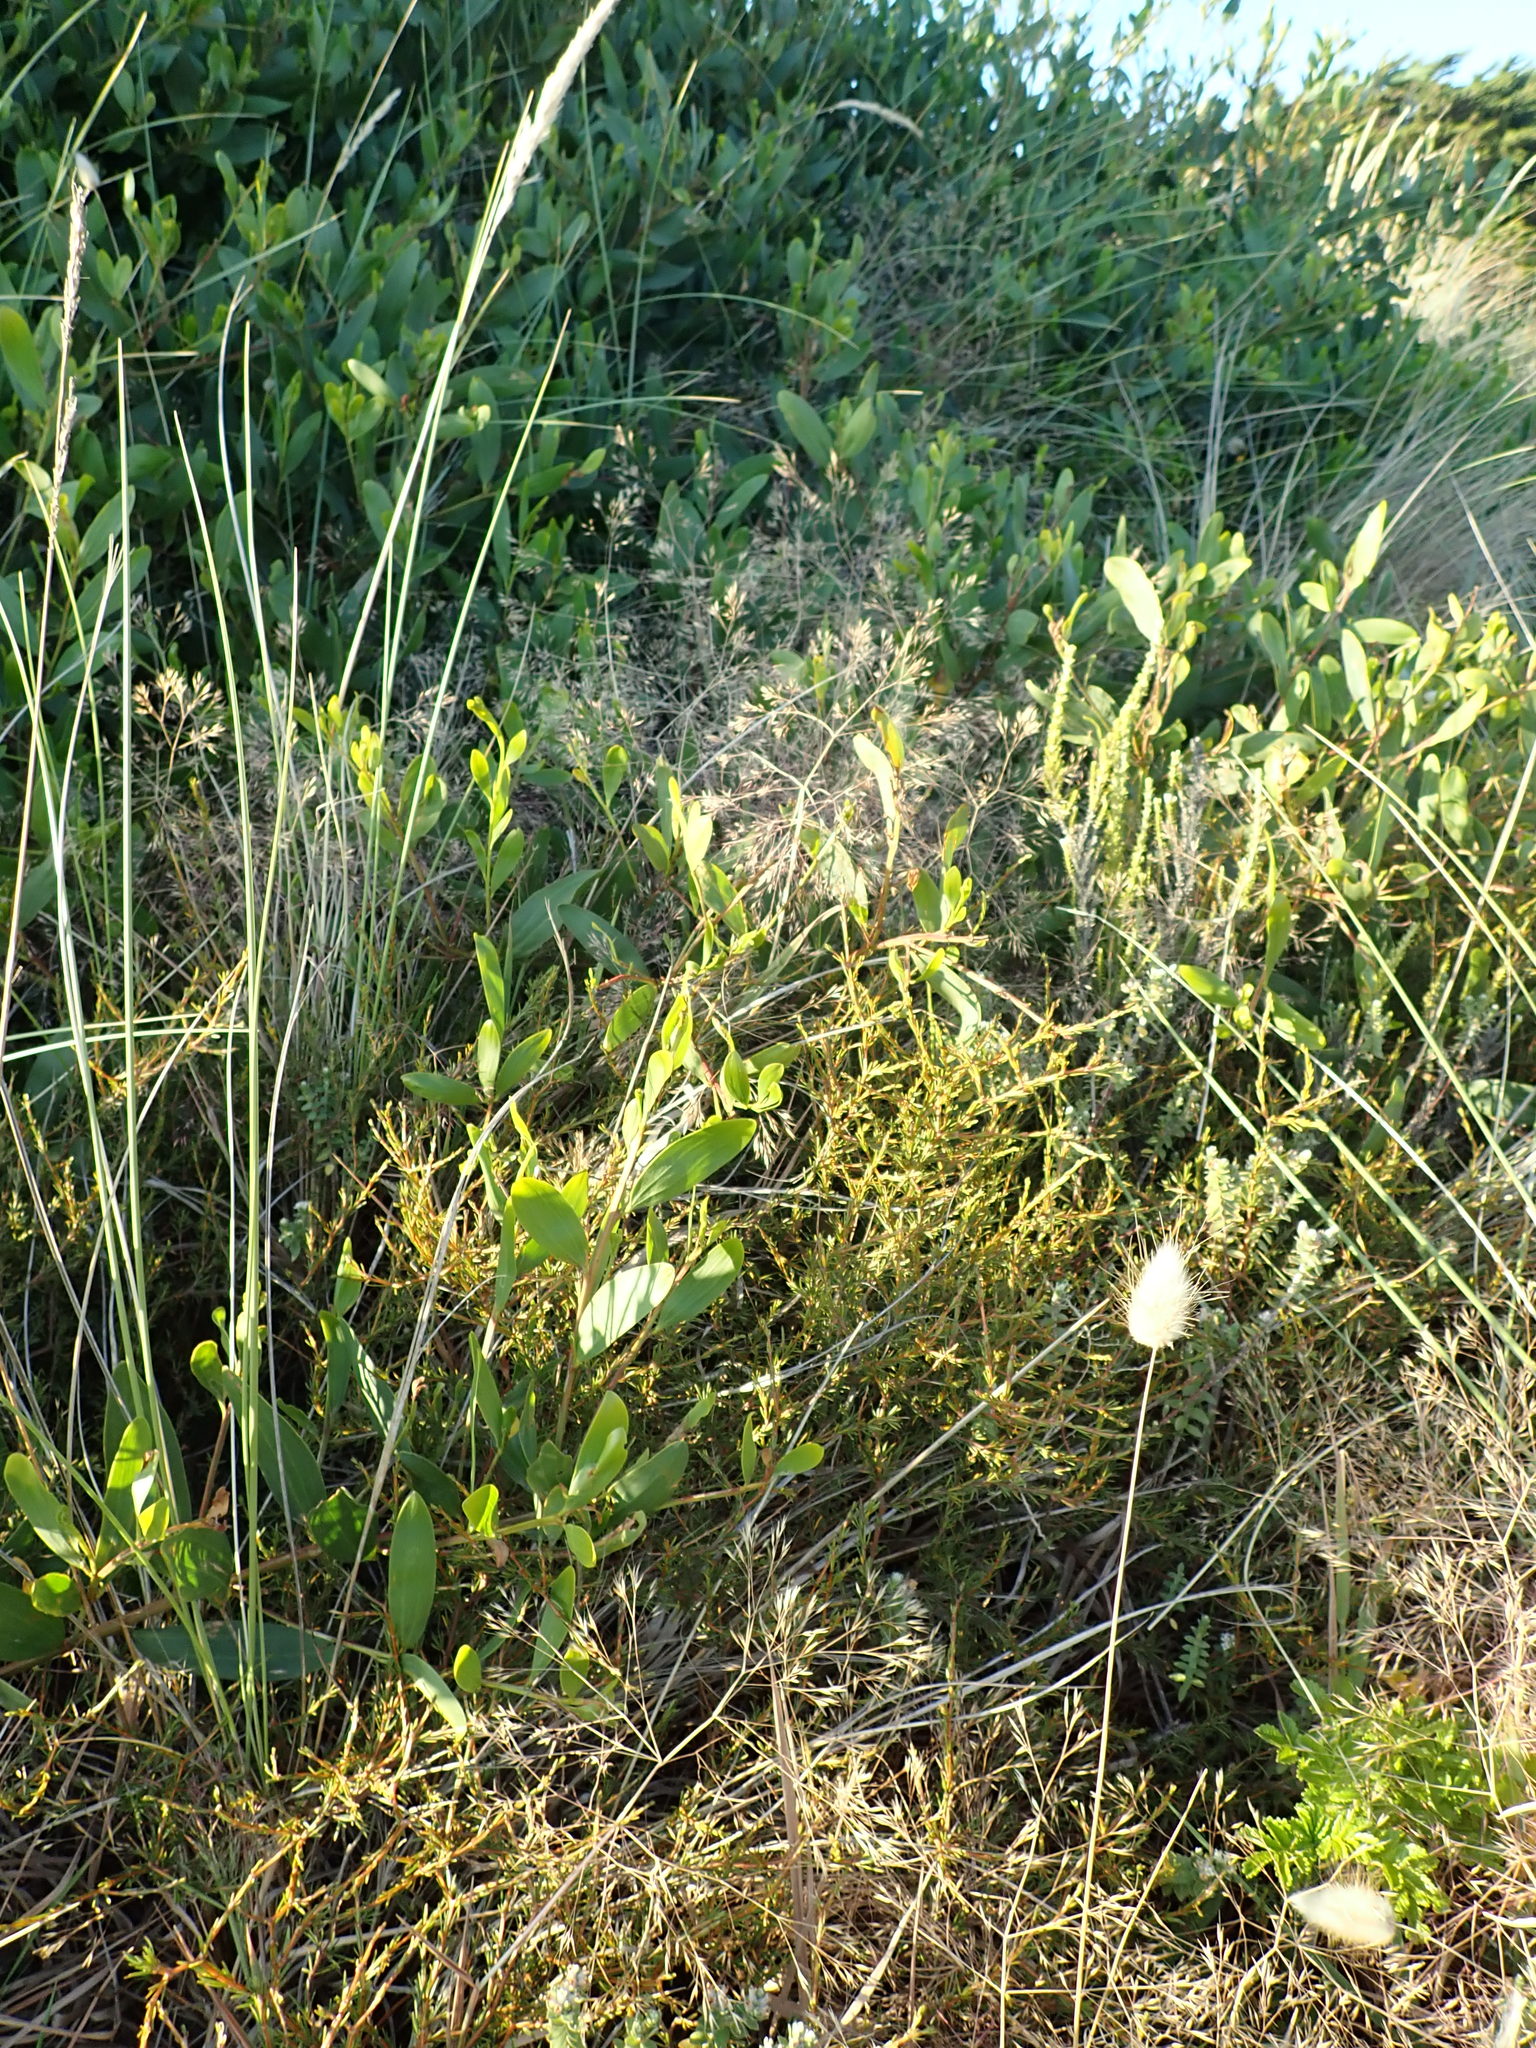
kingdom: Plantae
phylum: Tracheophyta
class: Magnoliopsida
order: Fabales
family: Fabaceae
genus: Acacia
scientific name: Acacia longifolia
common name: Sydney golden wattle
